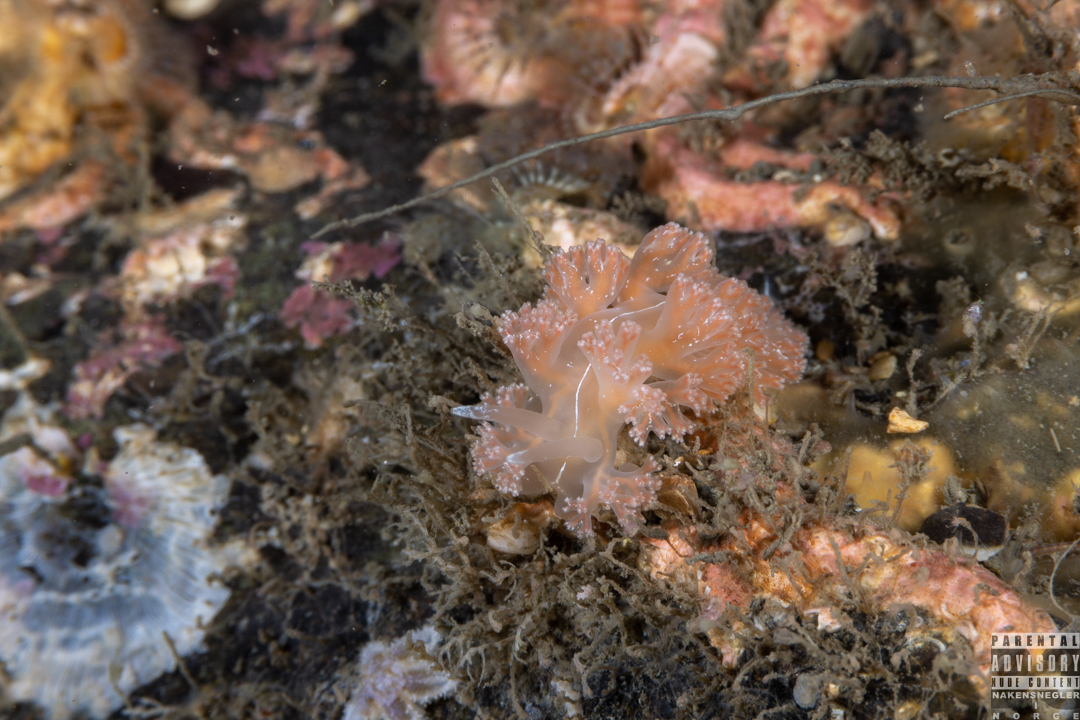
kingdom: Animalia
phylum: Mollusca
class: Gastropoda
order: Nudibranchia
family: Heroidae
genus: Hero
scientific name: Hero formosa
